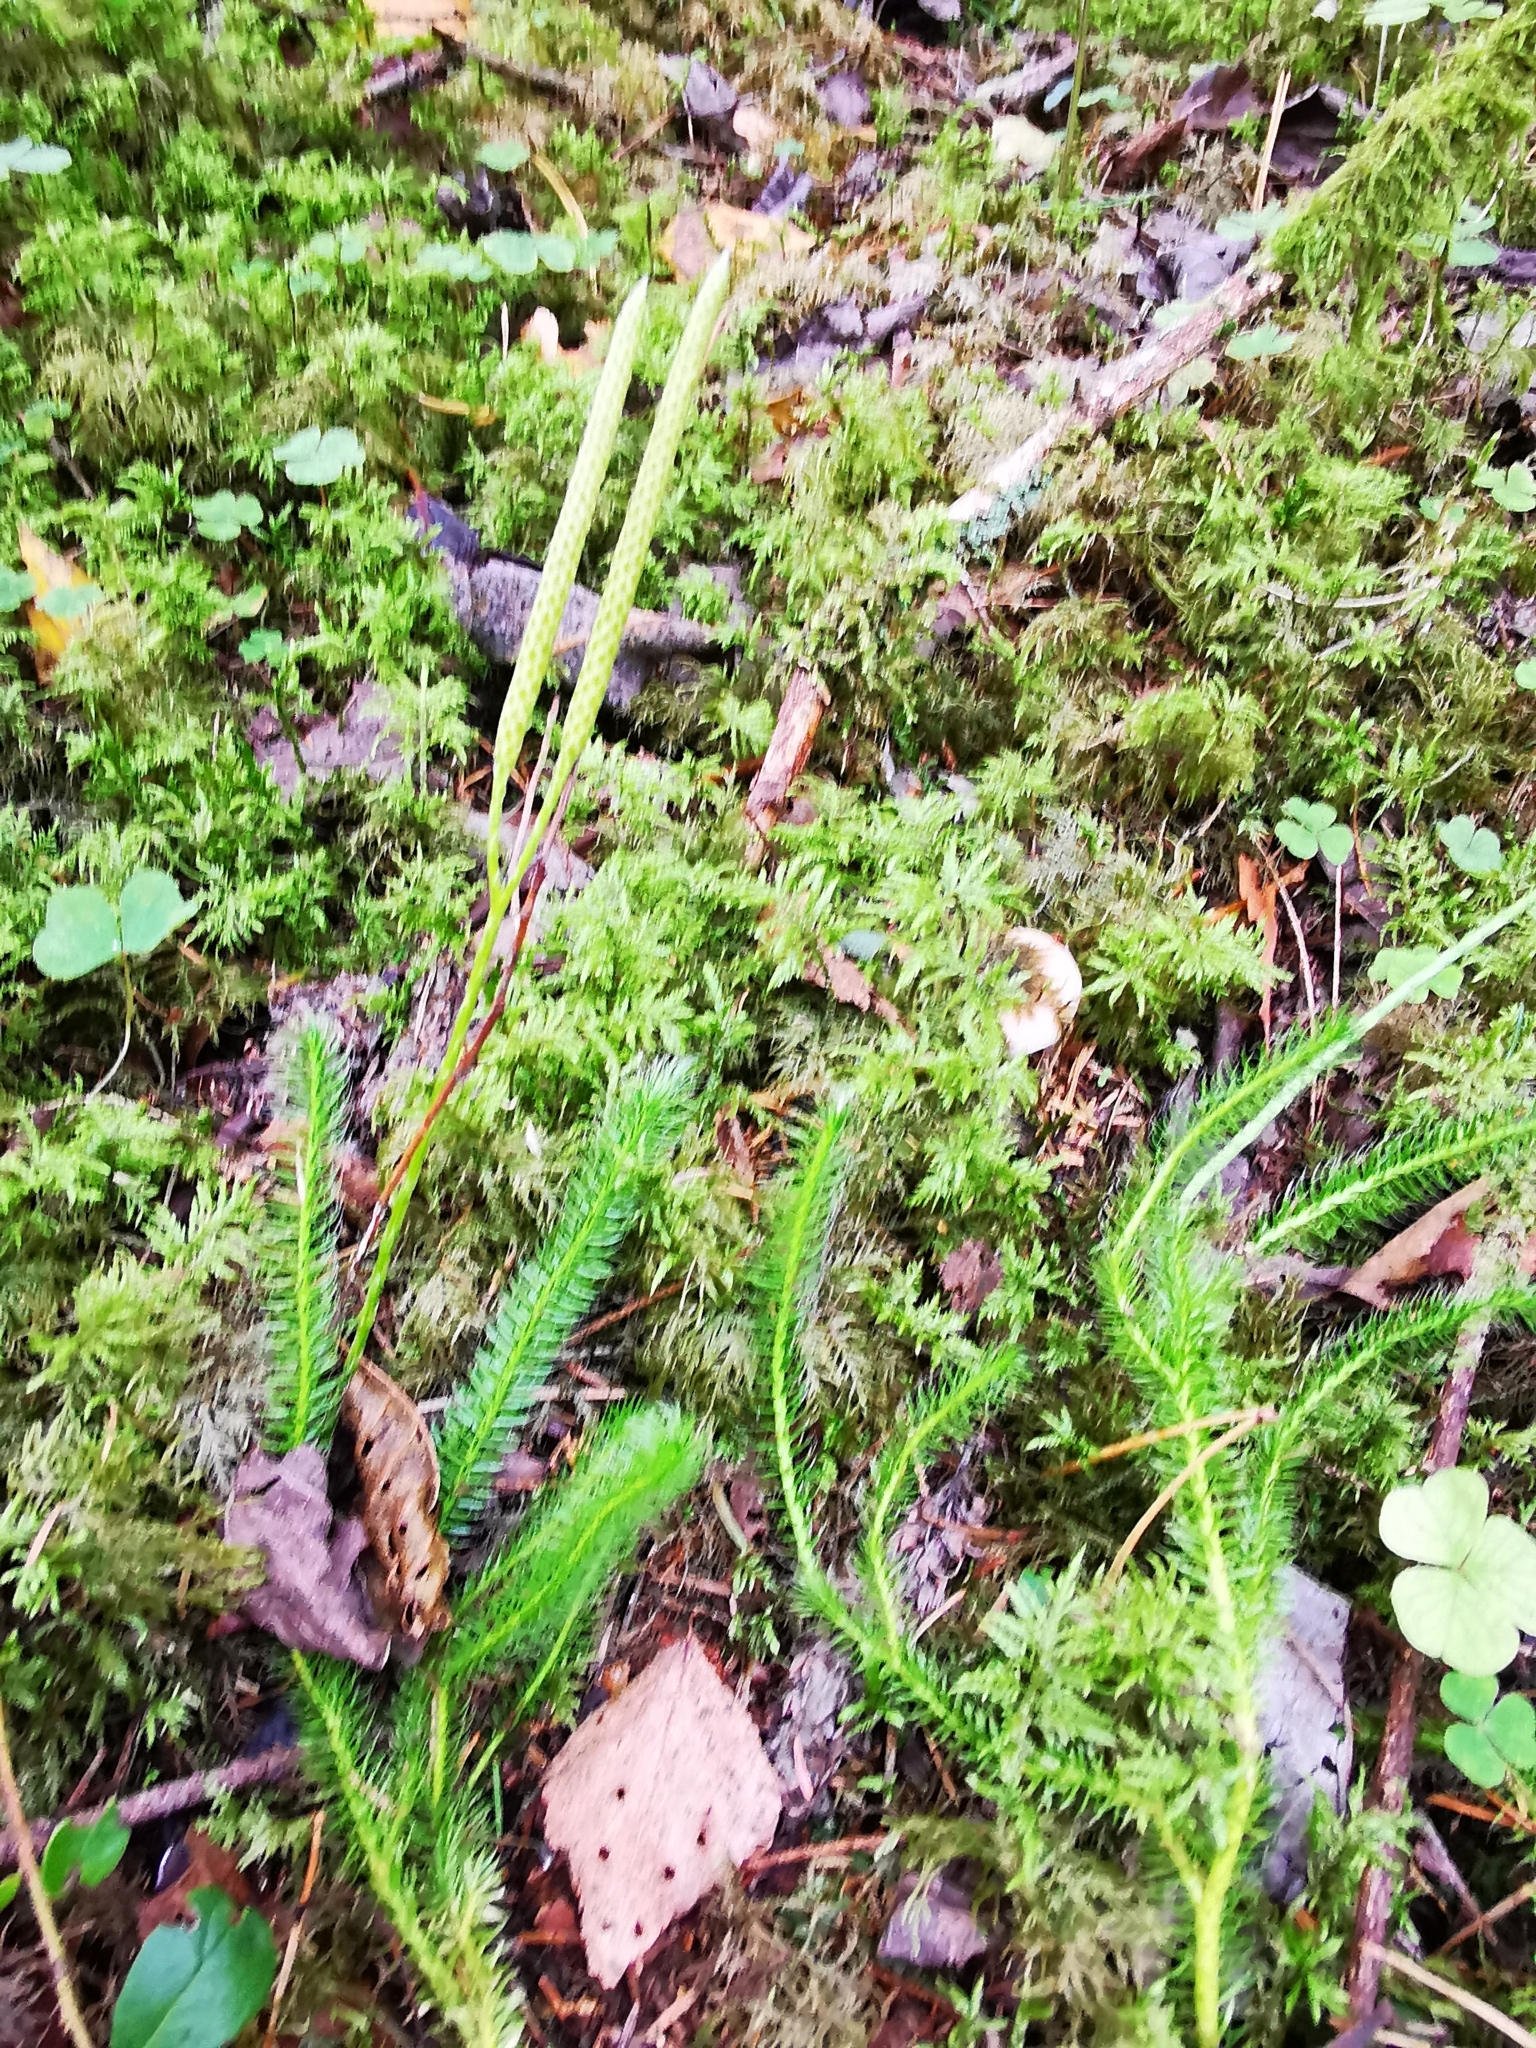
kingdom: Plantae
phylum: Tracheophyta
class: Lycopodiopsida
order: Lycopodiales
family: Lycopodiaceae
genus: Lycopodium
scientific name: Lycopodium clavatum
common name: Stag's-horn clubmoss
